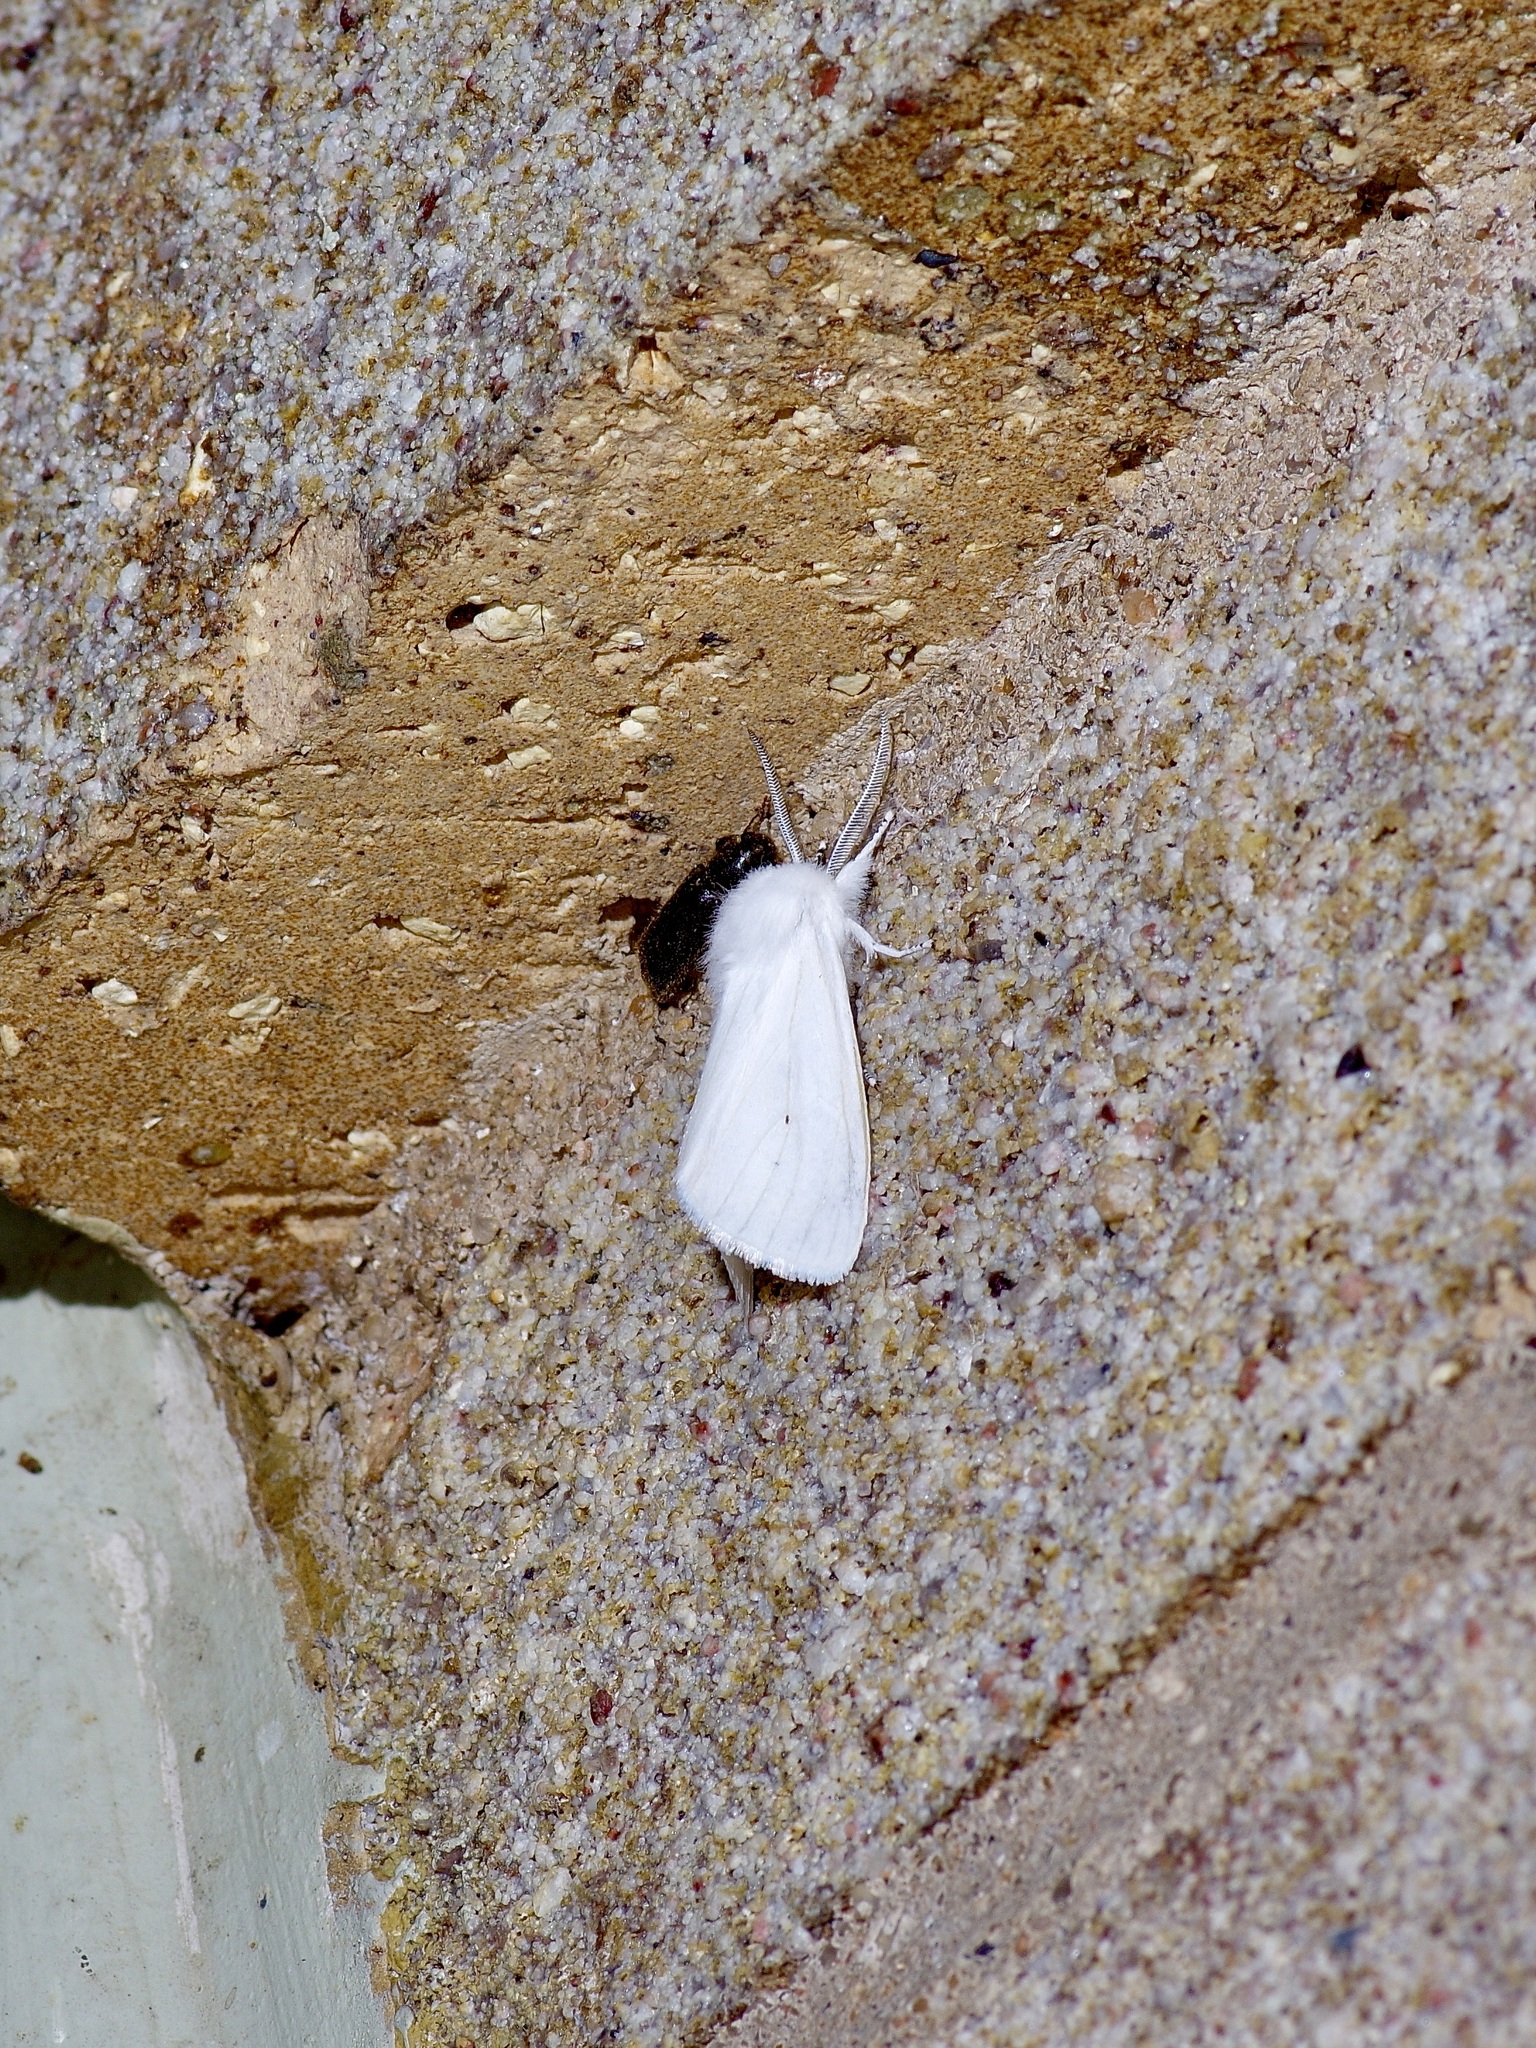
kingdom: Animalia
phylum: Arthropoda
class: Insecta
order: Lepidoptera
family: Erebidae
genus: Spilosoma
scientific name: Spilosoma virginica
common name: Virginia tiger moth
